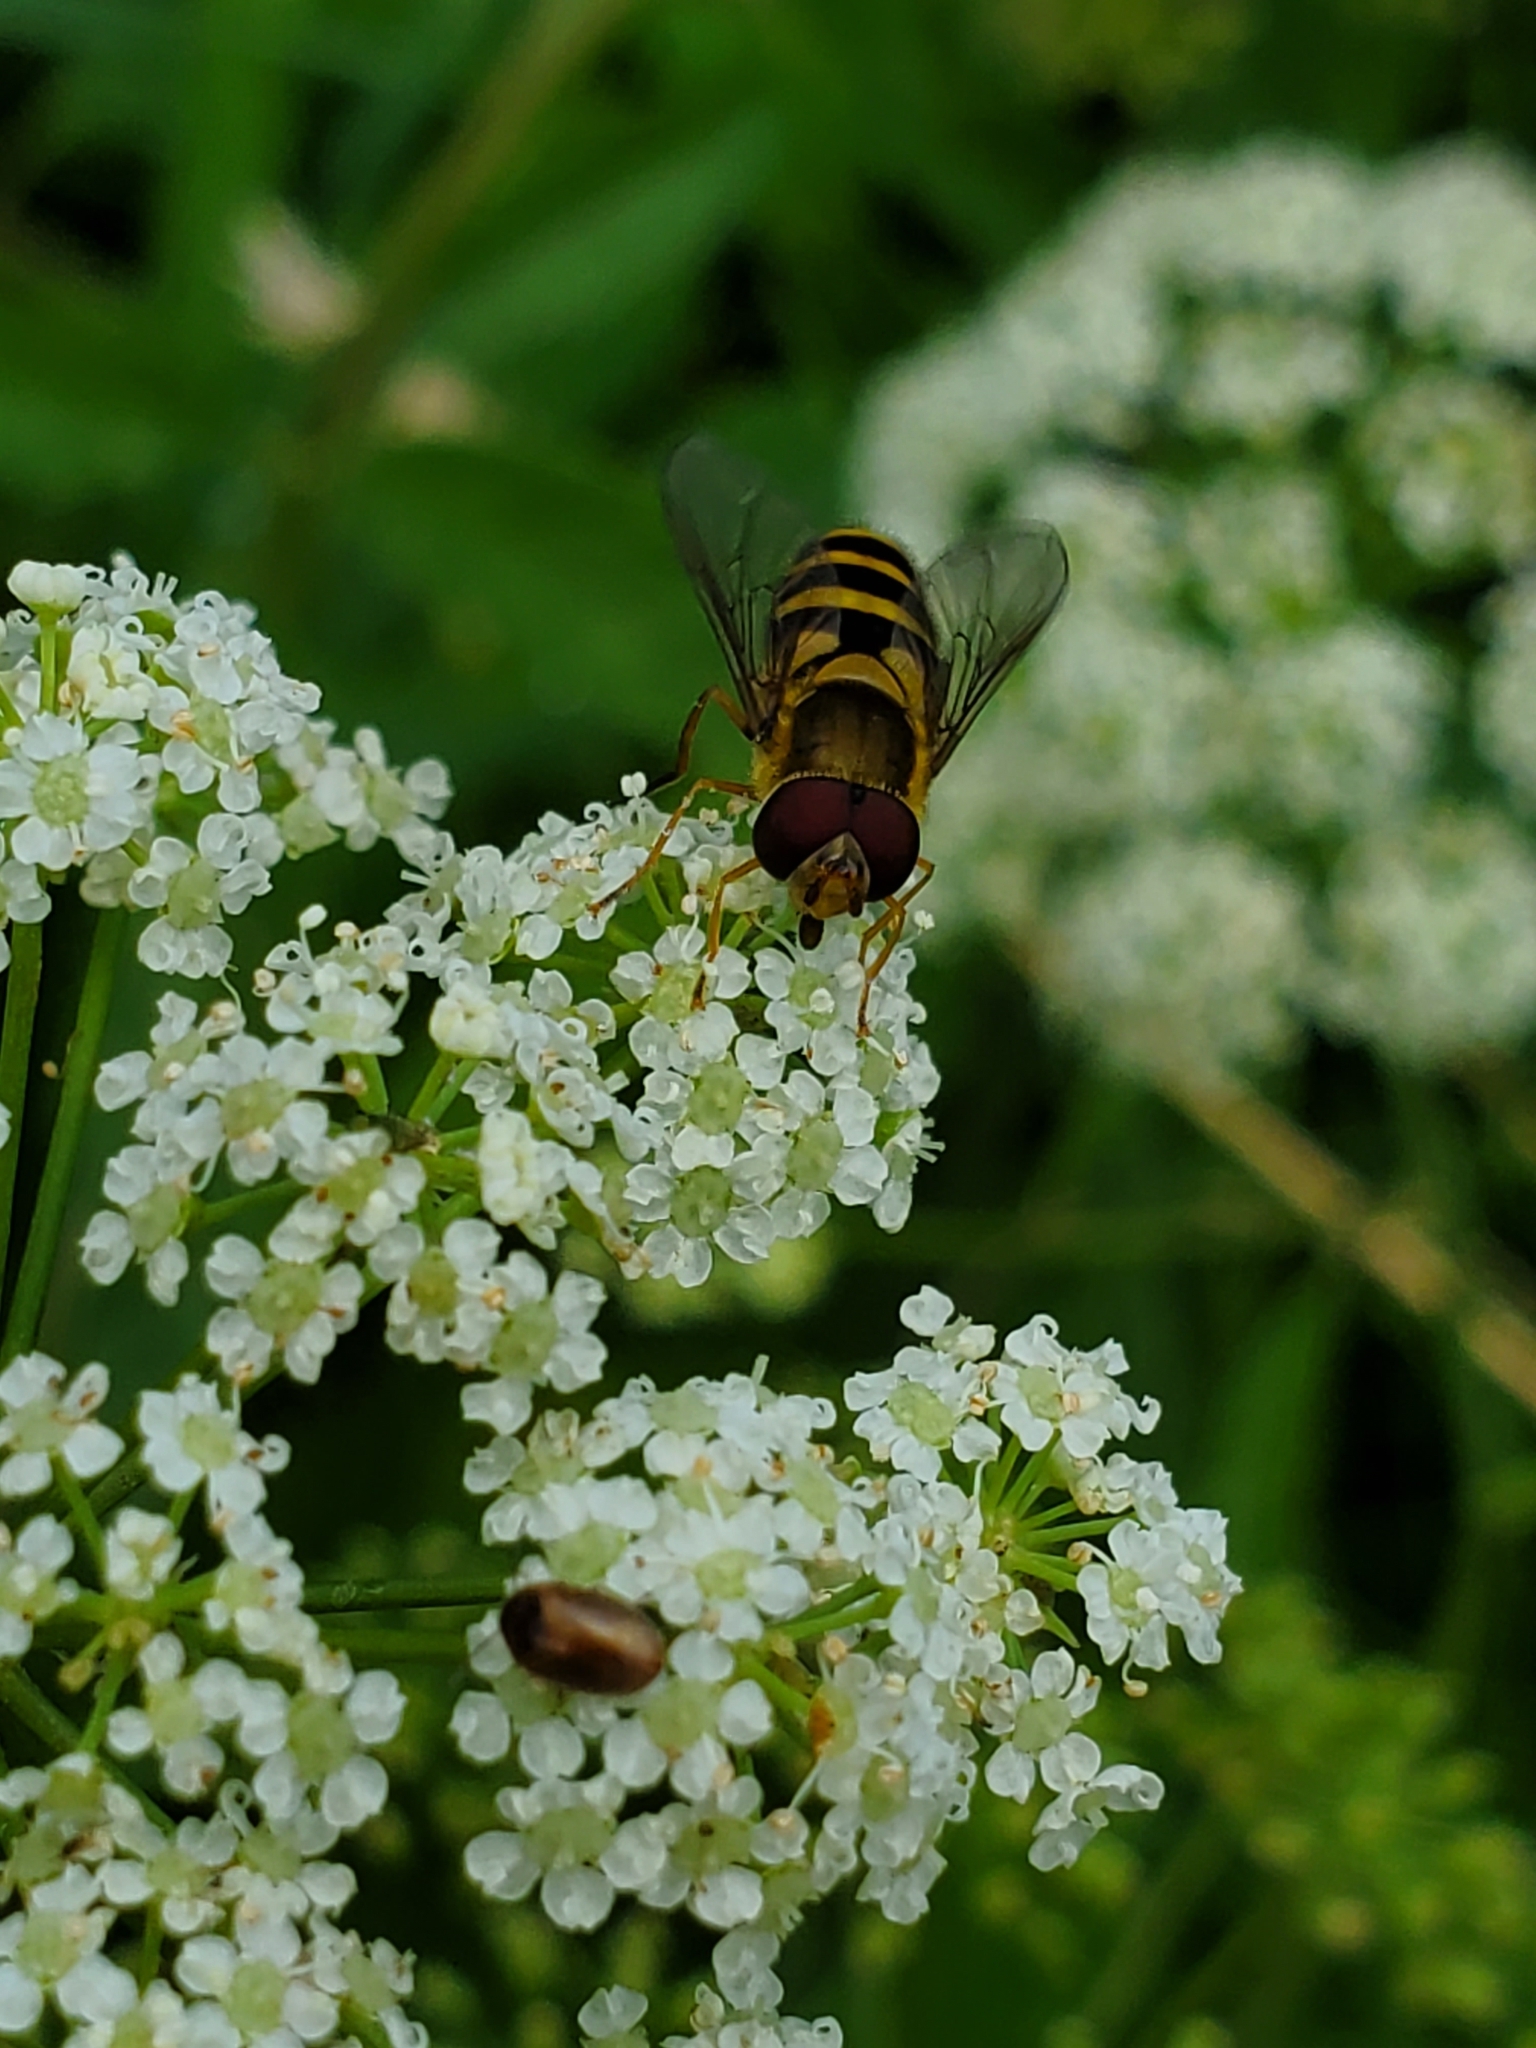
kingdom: Animalia
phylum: Arthropoda
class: Insecta
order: Diptera
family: Syrphidae
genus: Syrphus
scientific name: Syrphus
